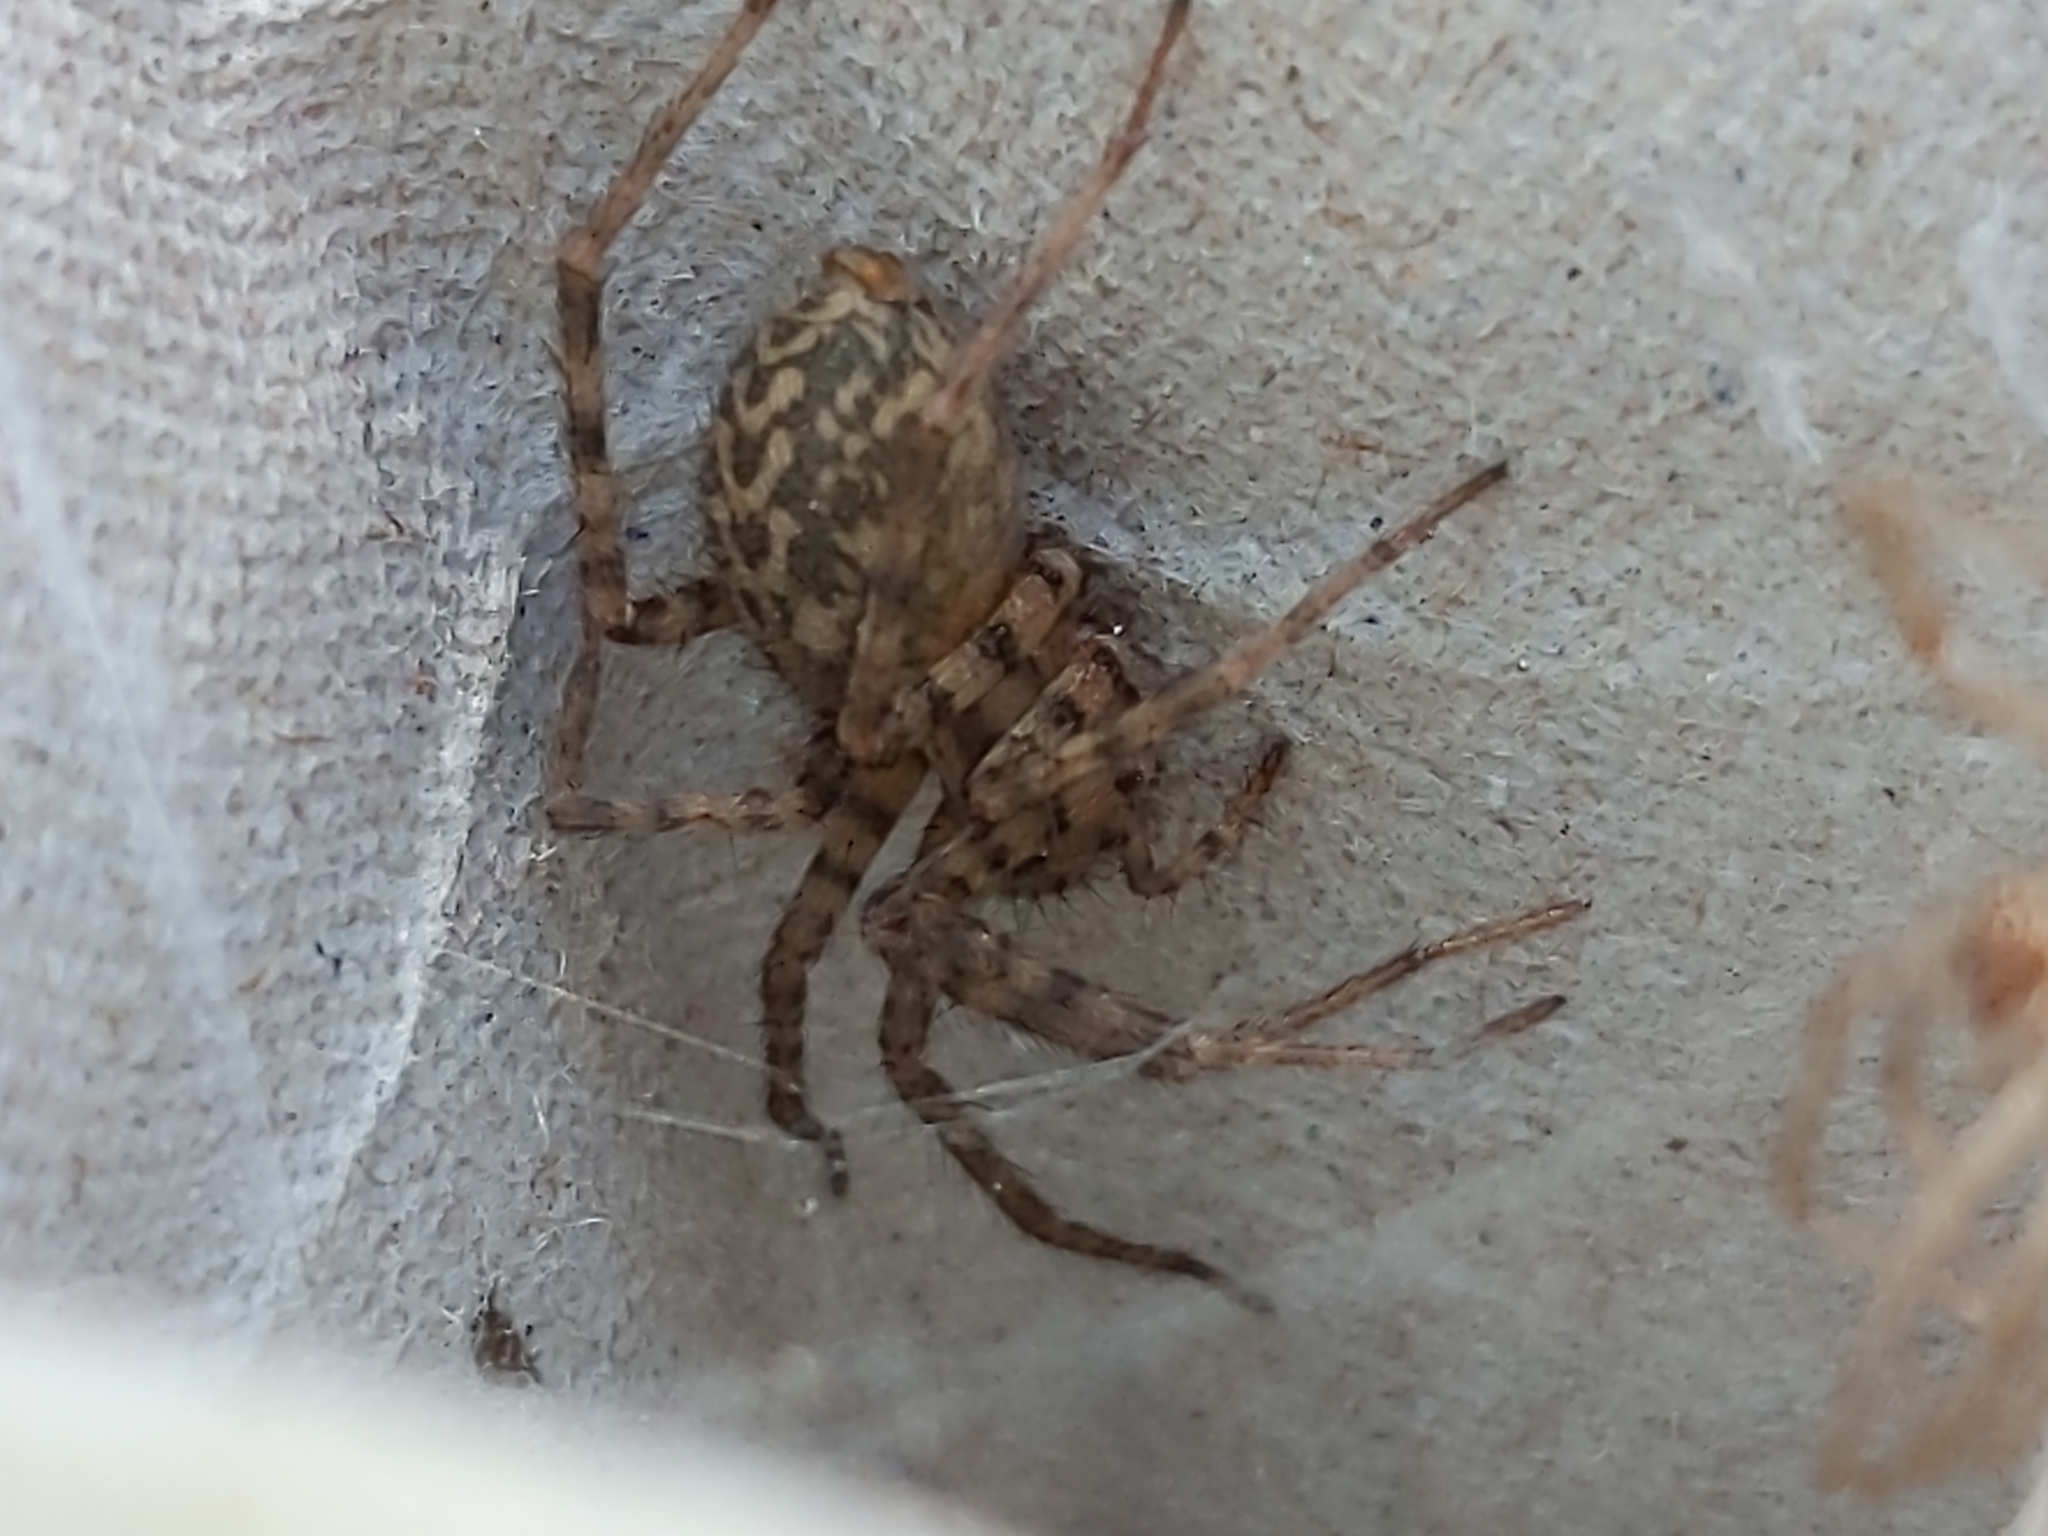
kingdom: Animalia
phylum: Arthropoda
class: Arachnida
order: Araneae
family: Agelenidae
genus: Tegenaria
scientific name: Tegenaria domestica
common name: Barn funnel weaver
